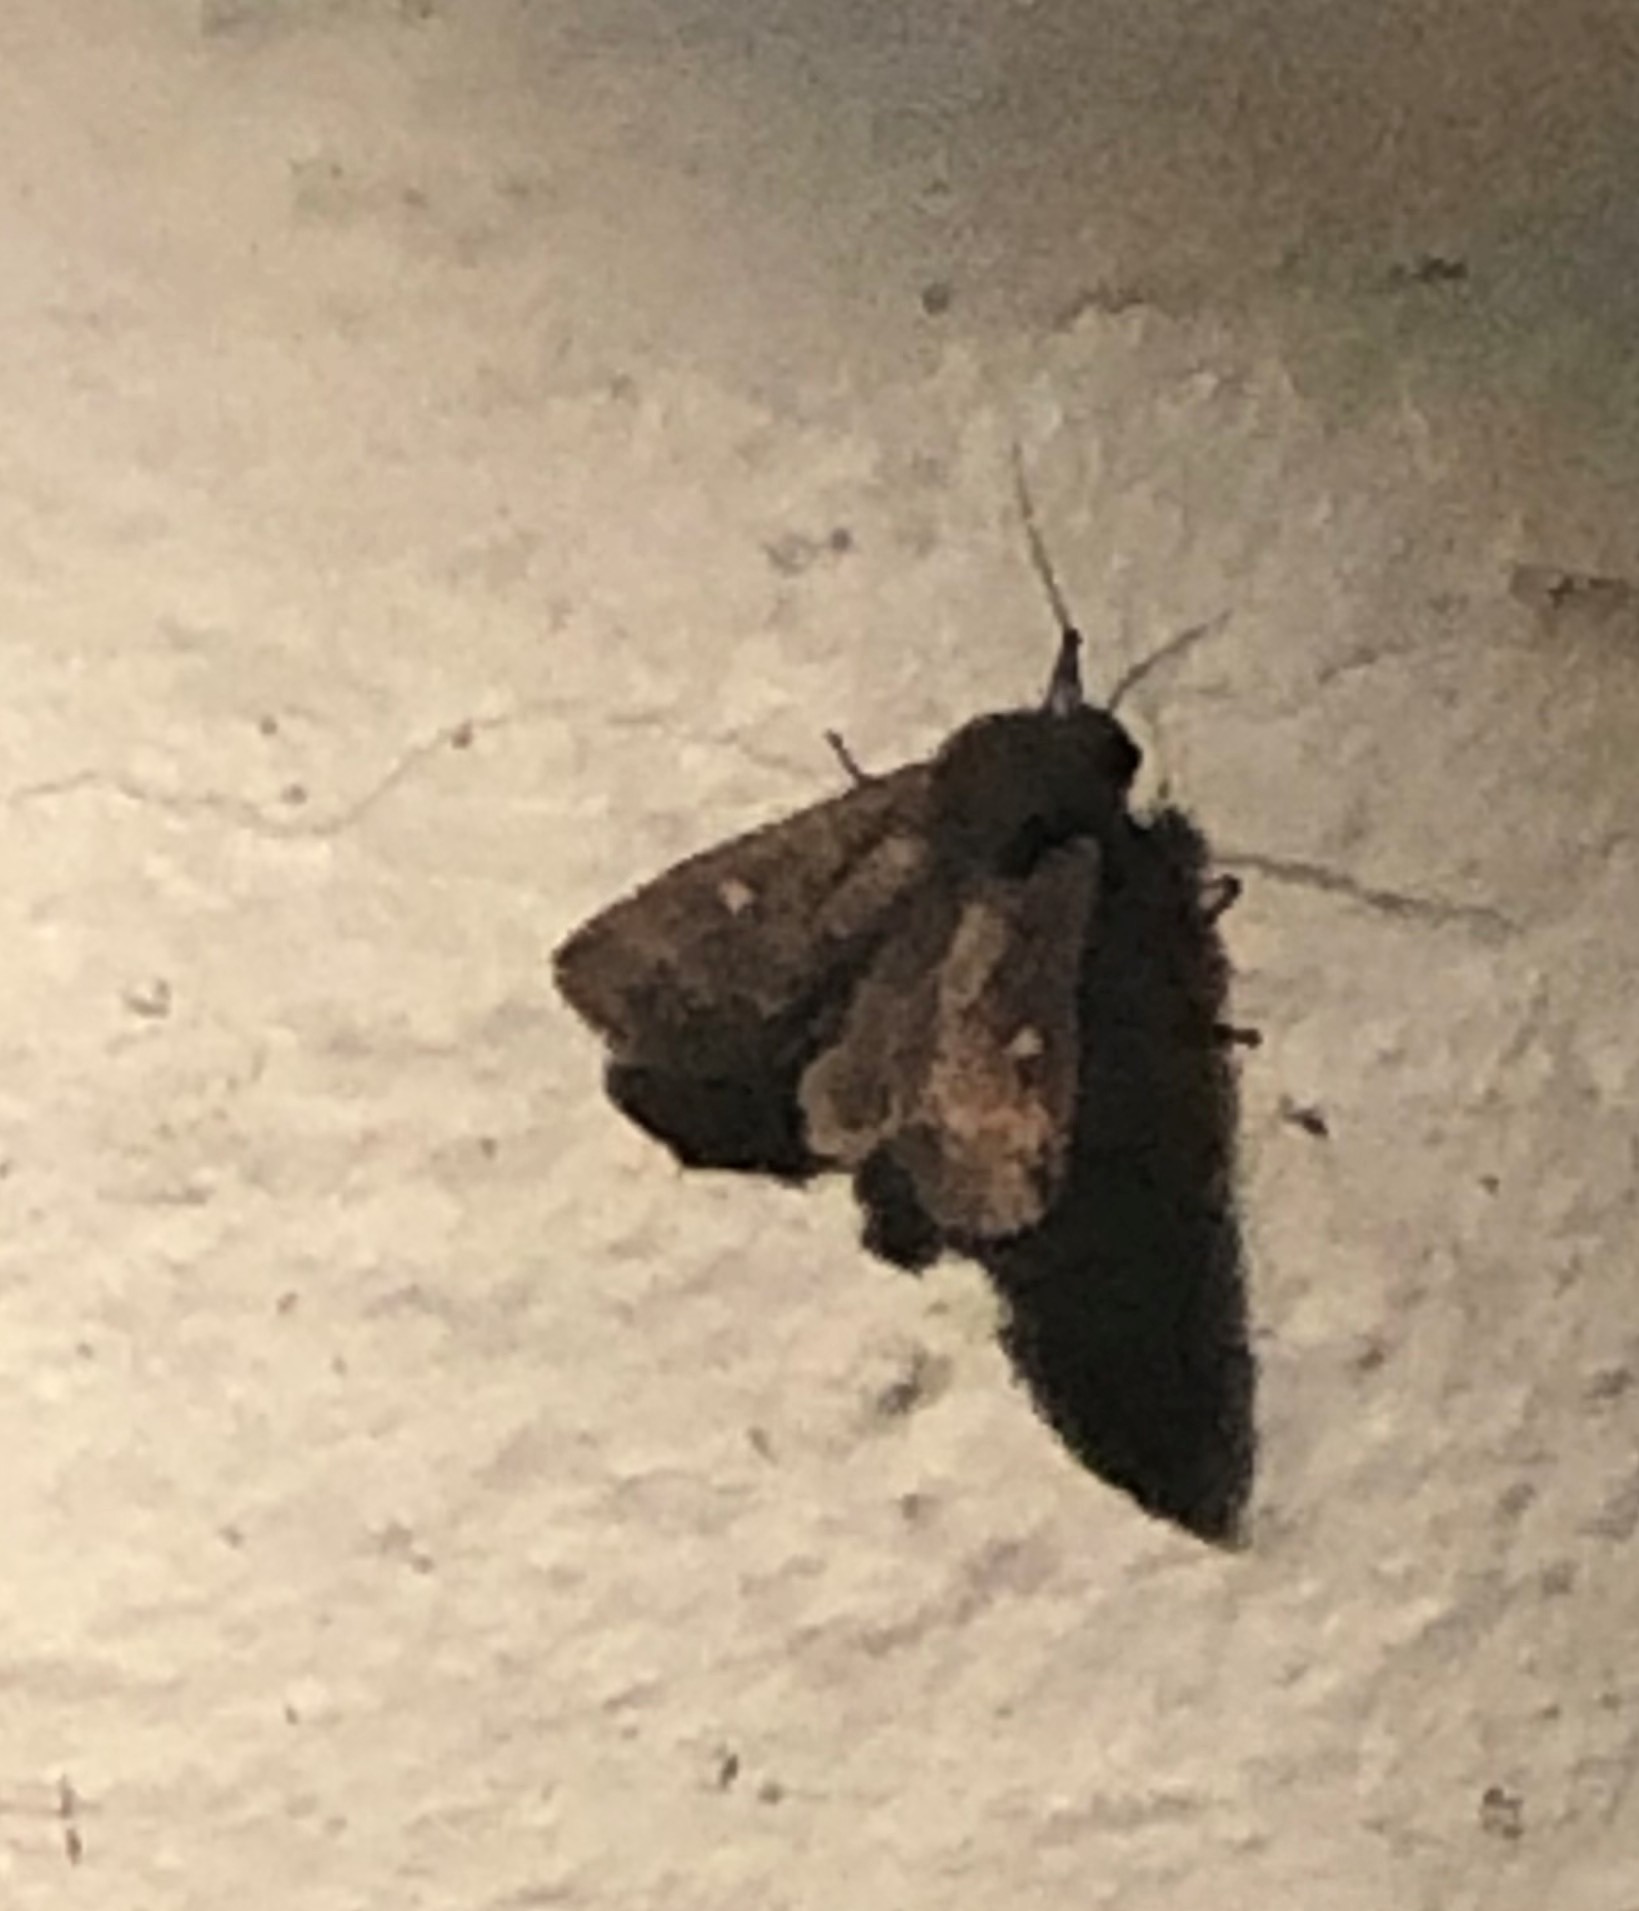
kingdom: Animalia
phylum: Arthropoda
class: Insecta
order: Lepidoptera
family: Noctuidae
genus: Eupsilia
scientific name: Eupsilia transversa
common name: Satellite
